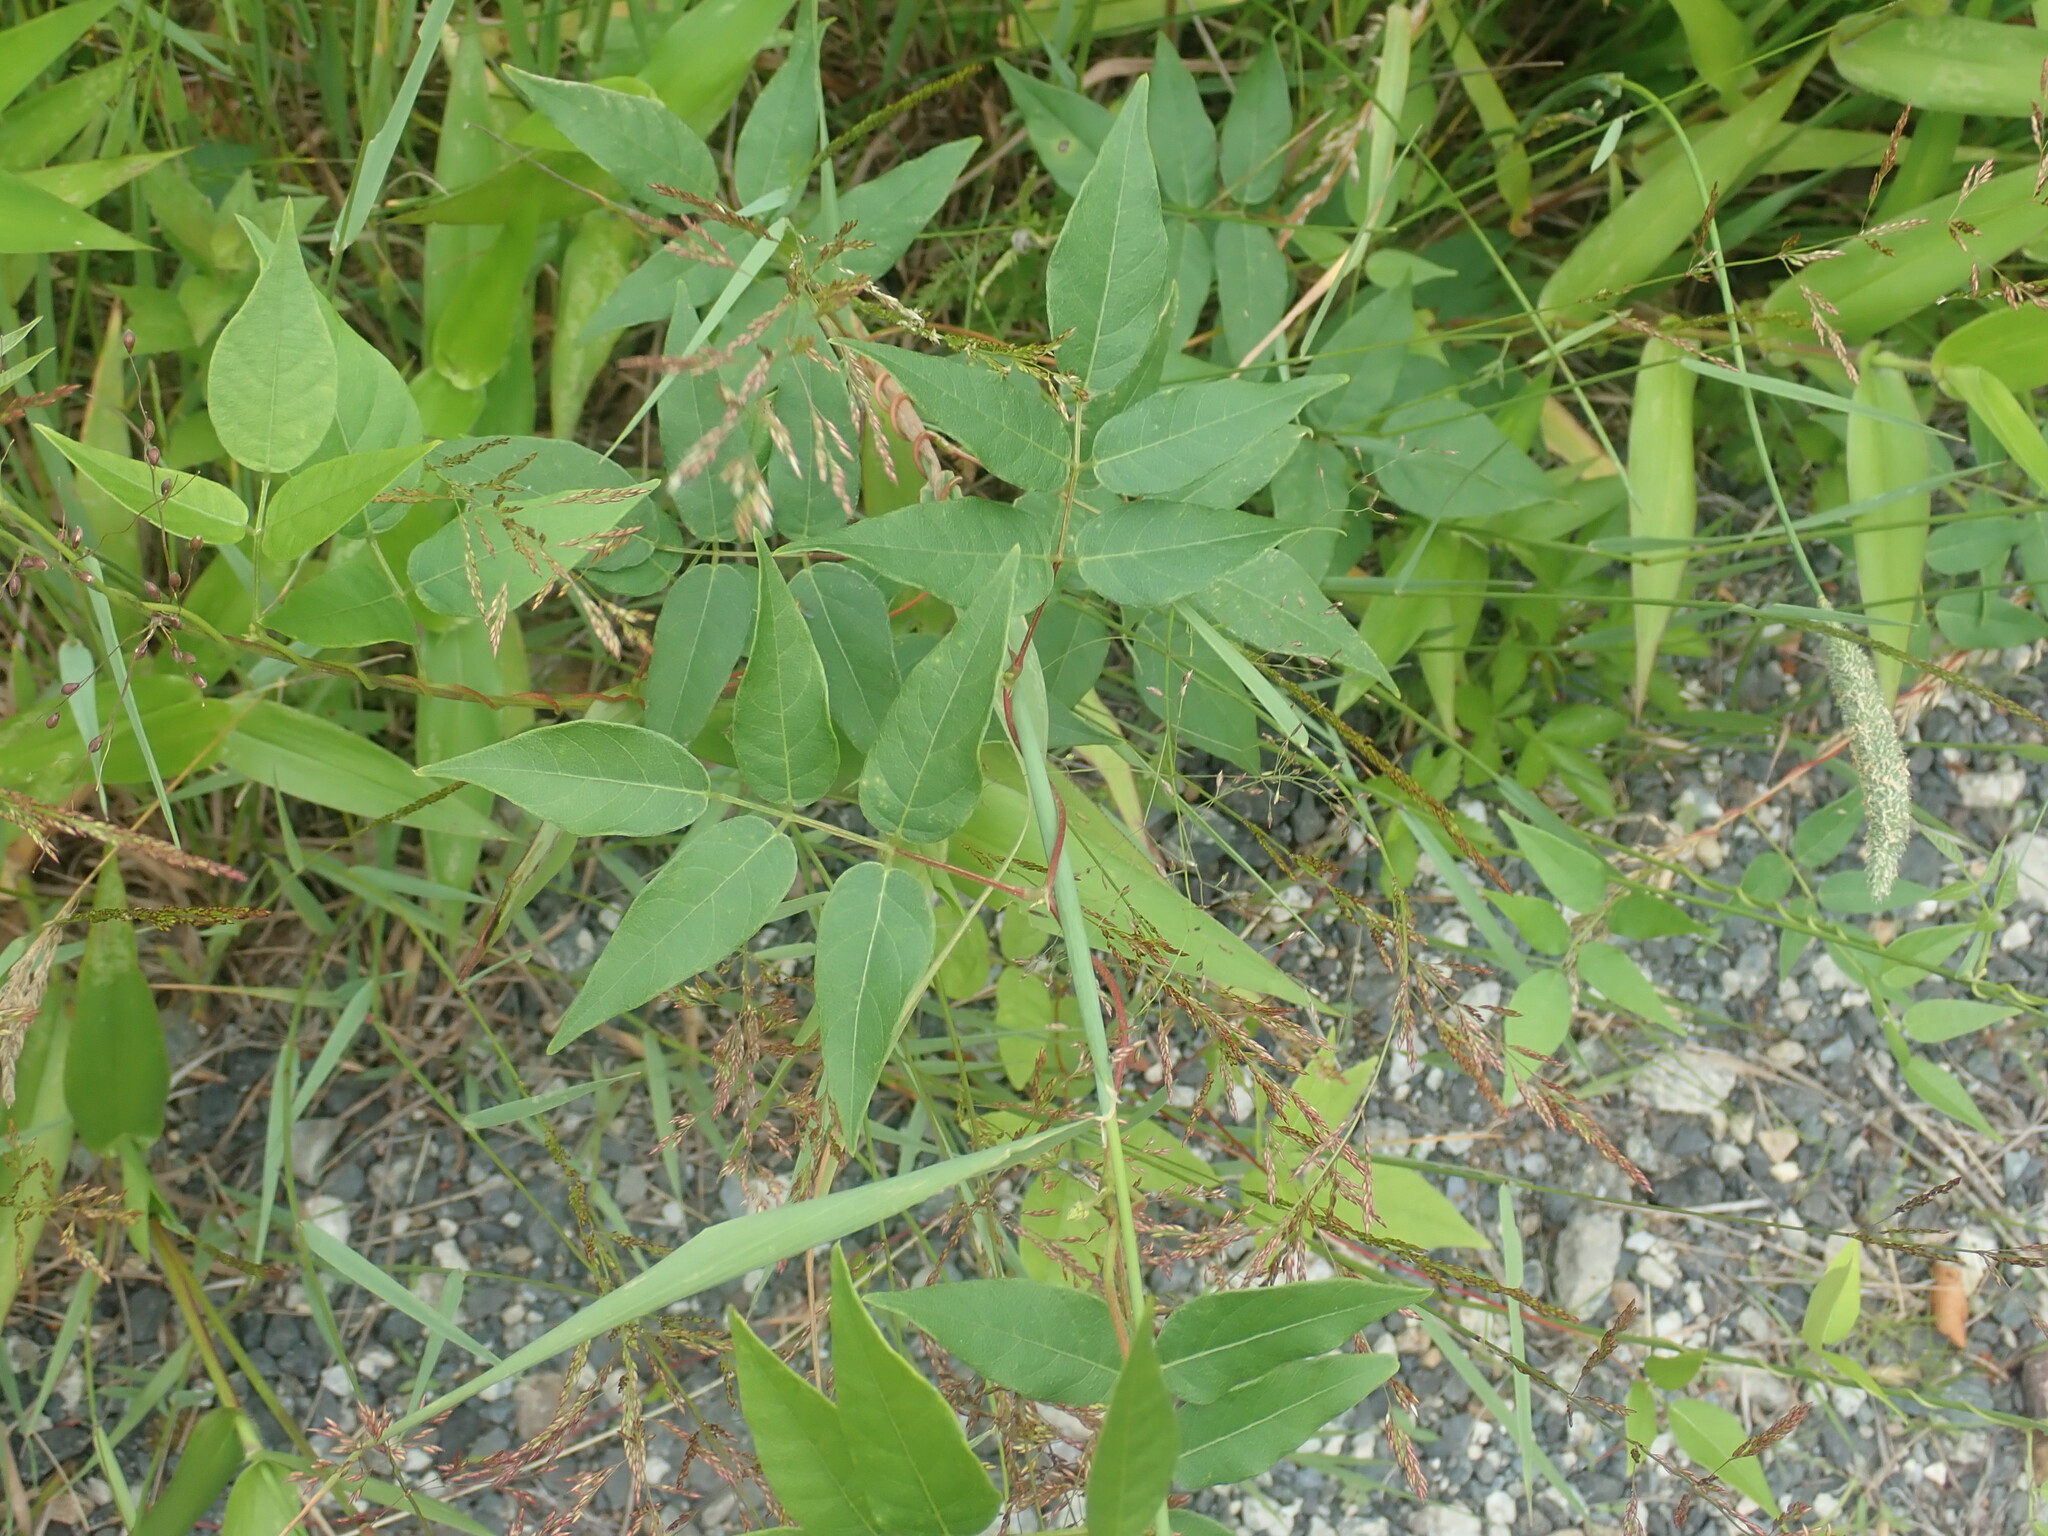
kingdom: Plantae
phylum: Tracheophyta
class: Magnoliopsida
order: Fabales
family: Fabaceae
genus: Apios
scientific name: Apios americana
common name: American potato-bean
